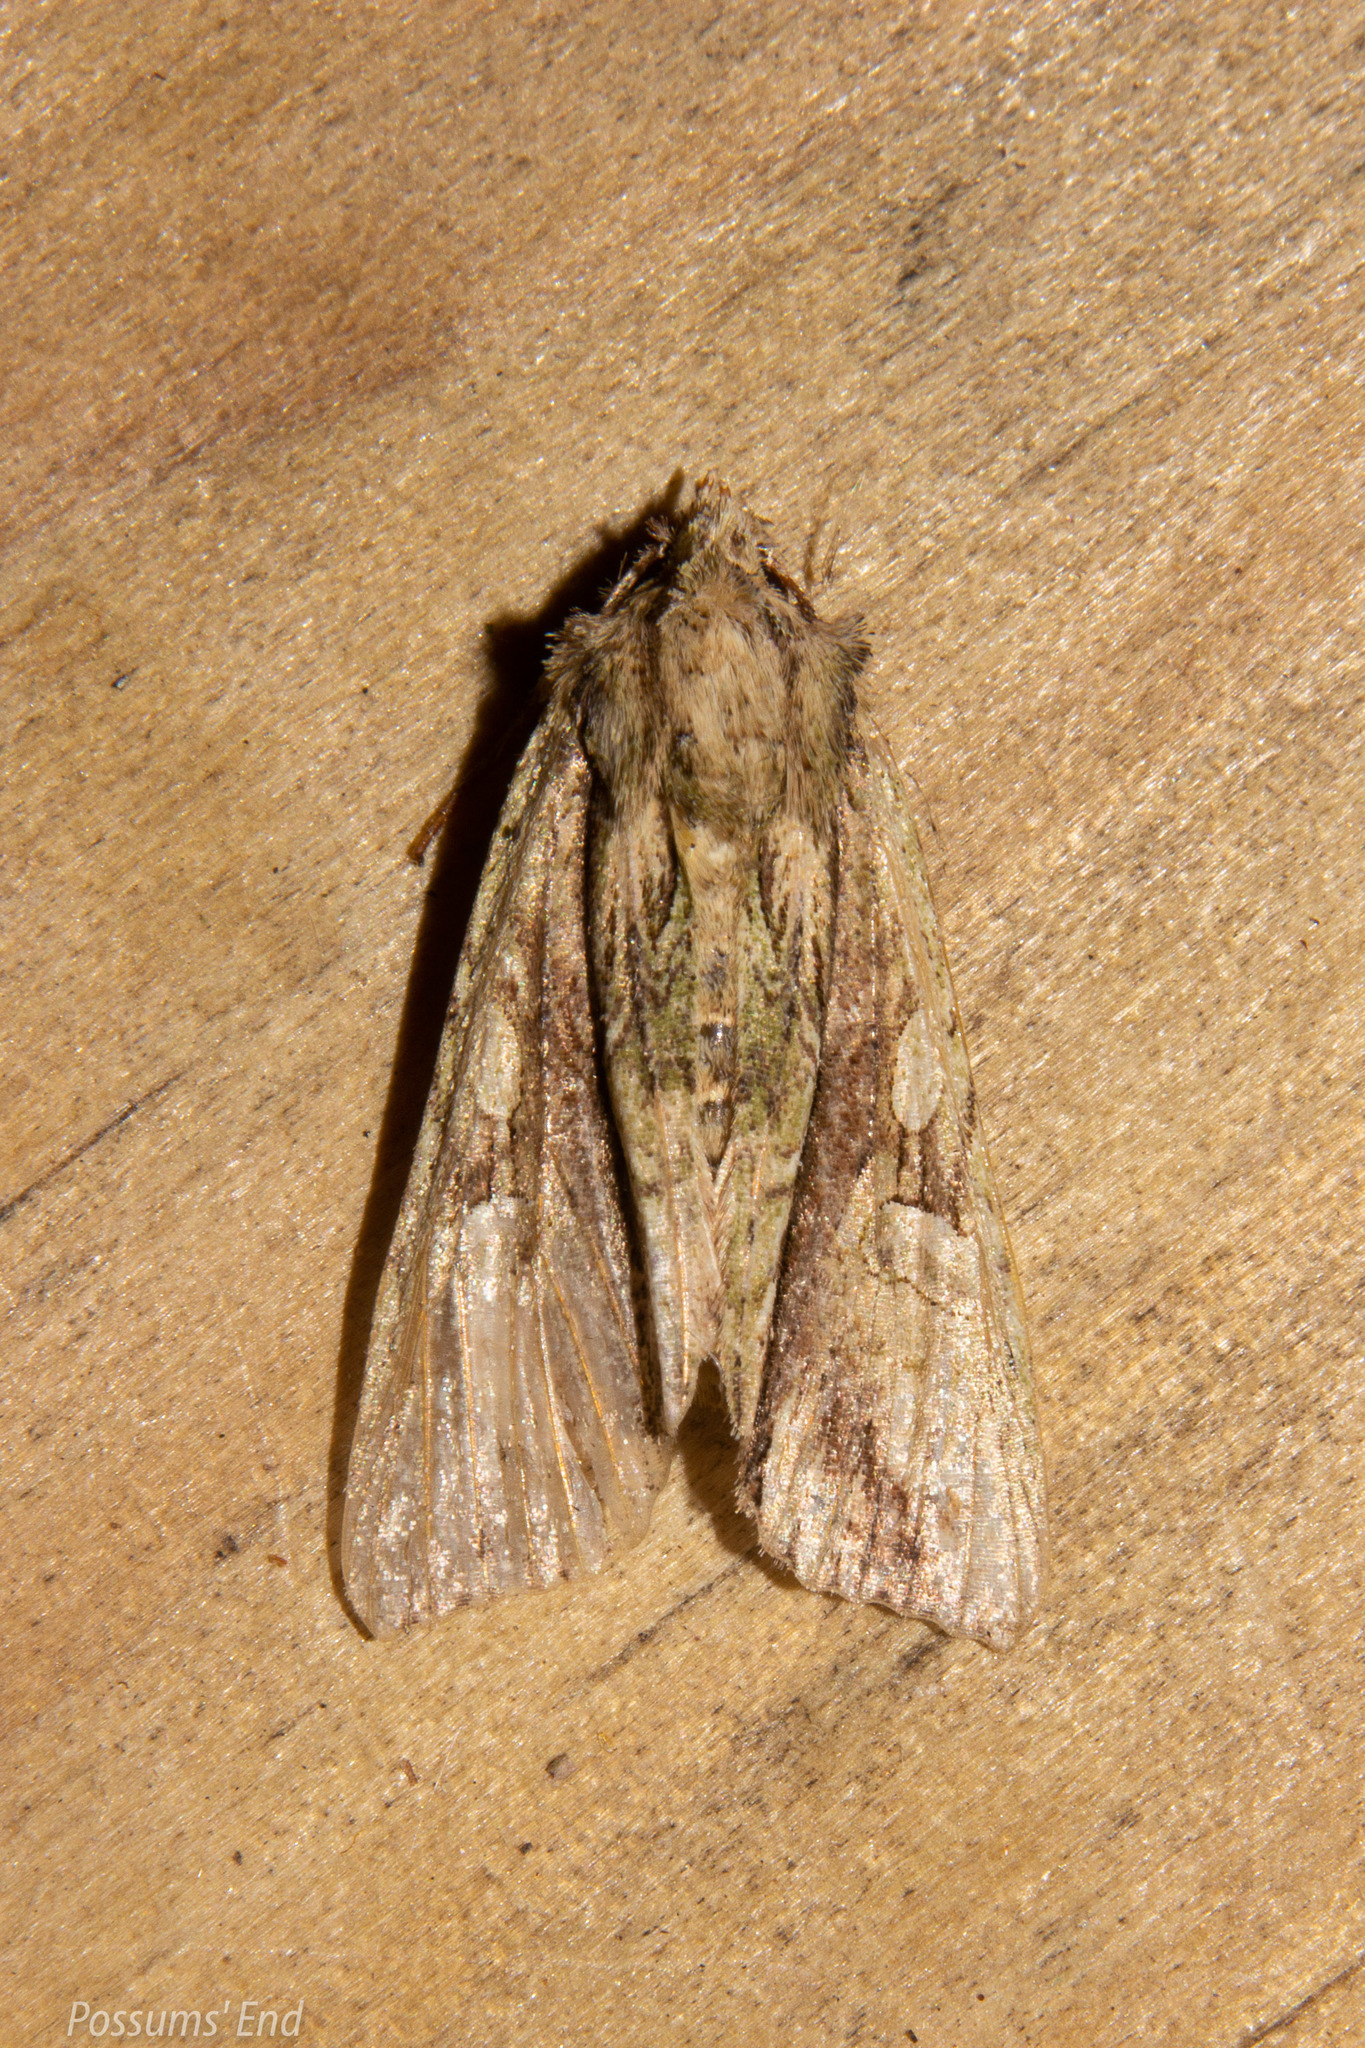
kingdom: Animalia
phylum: Arthropoda
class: Insecta
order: Lepidoptera
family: Noctuidae
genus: Meterana
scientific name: Meterana decorata
